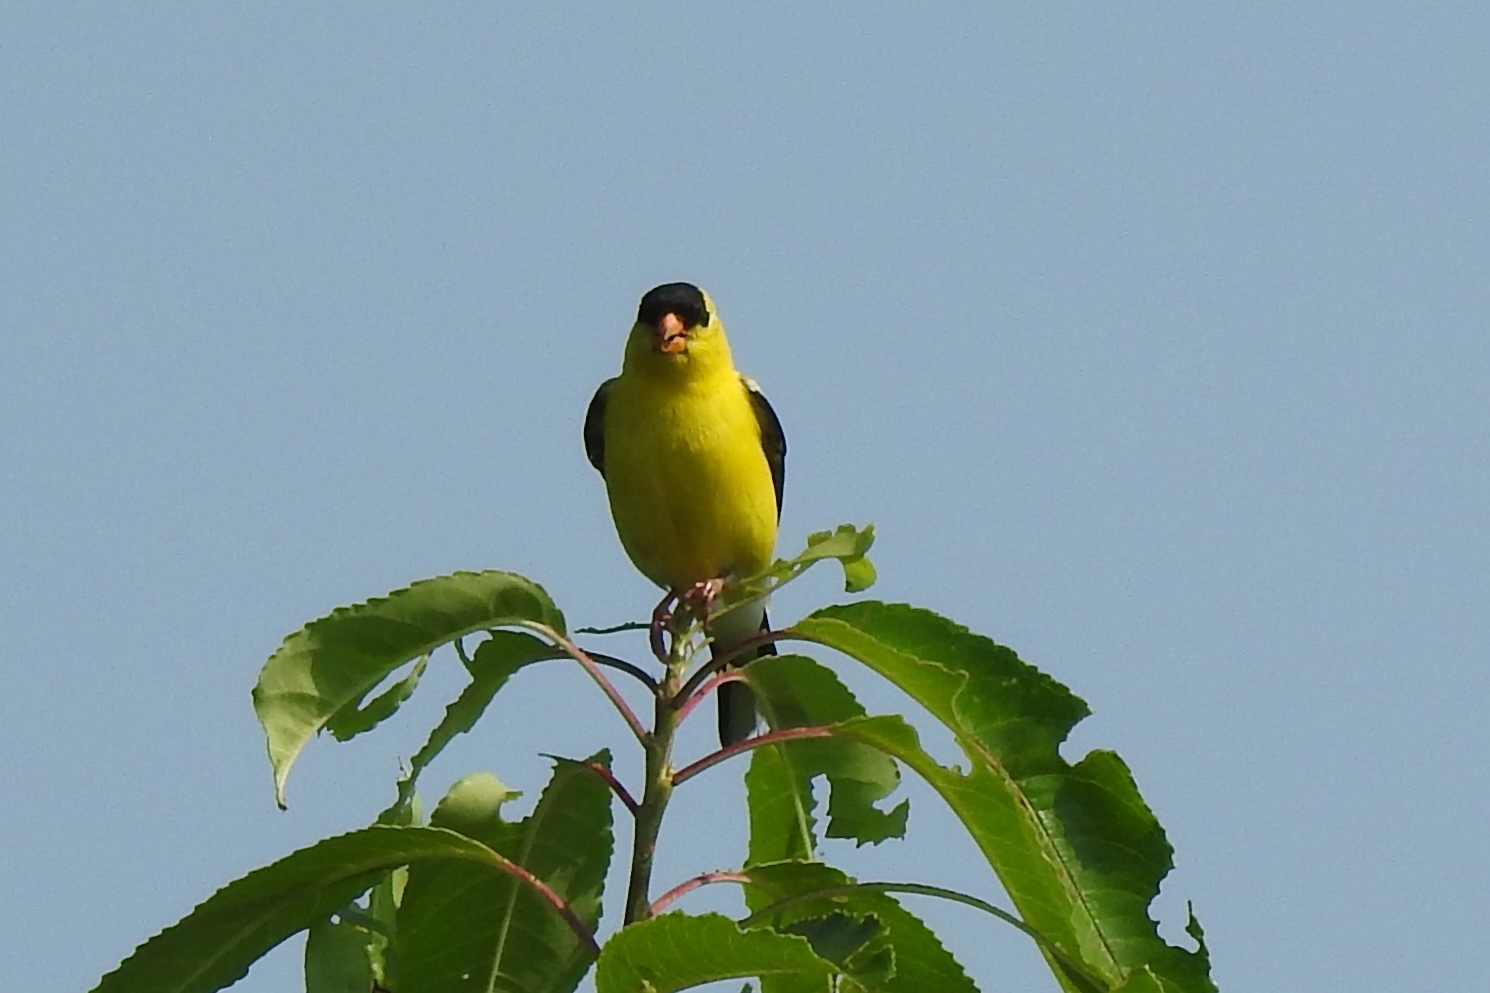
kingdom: Animalia
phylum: Chordata
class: Aves
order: Passeriformes
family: Fringillidae
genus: Spinus
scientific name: Spinus tristis
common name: American goldfinch
